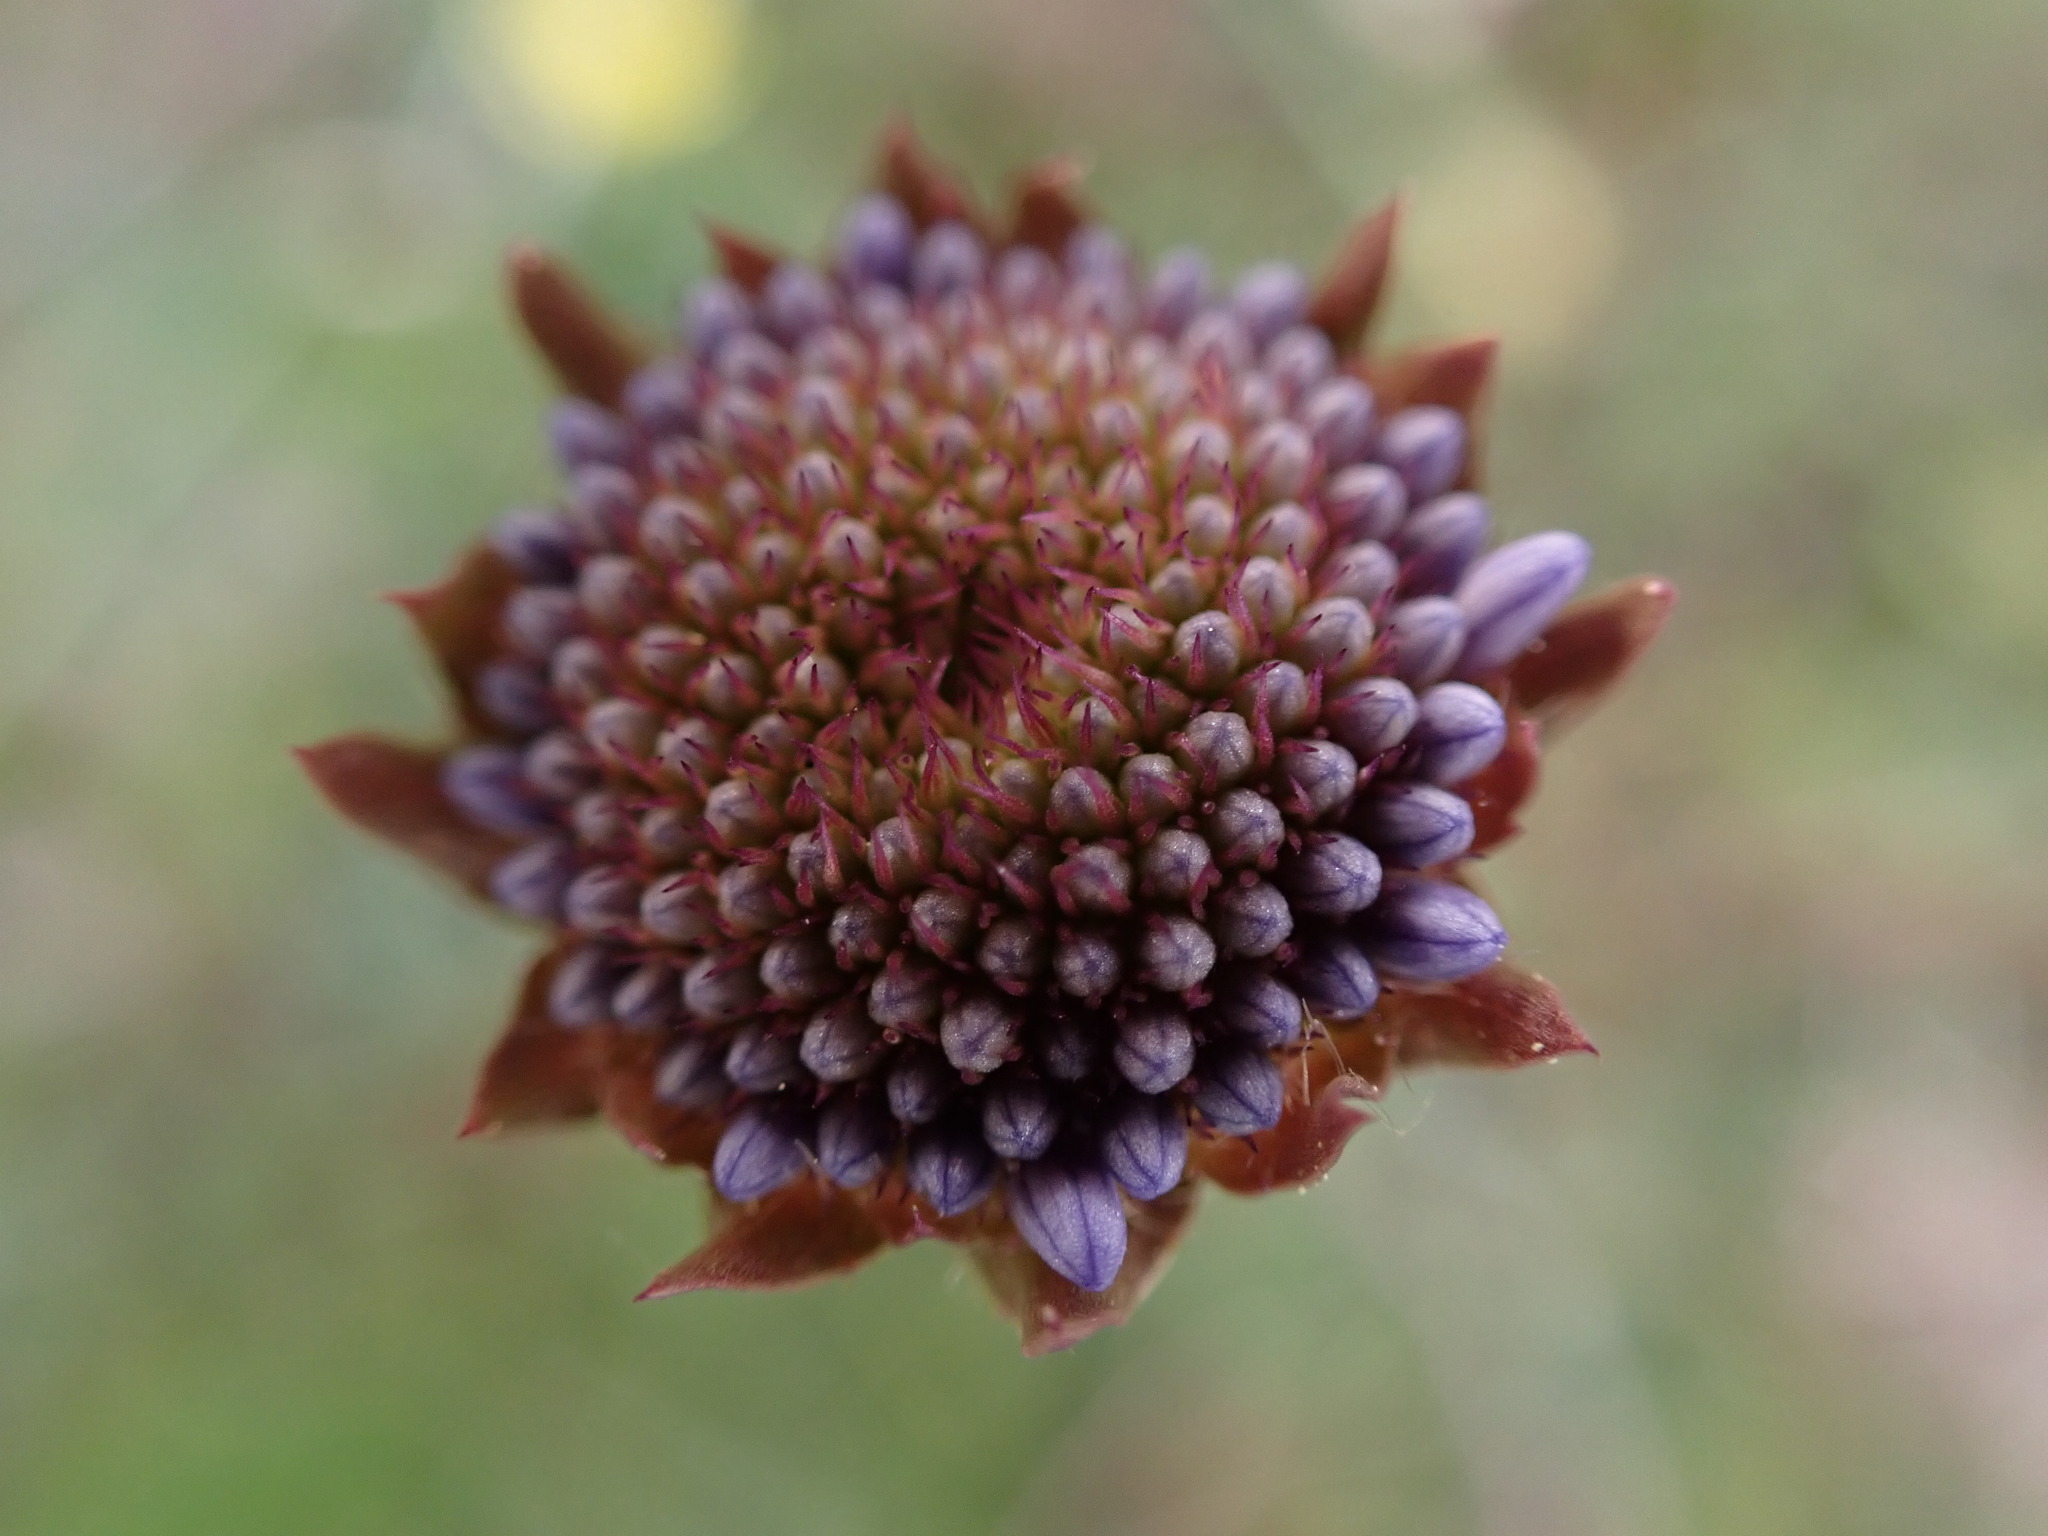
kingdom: Plantae
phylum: Tracheophyta
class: Magnoliopsida
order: Asterales
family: Campanulaceae
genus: Jasione
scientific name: Jasione montana
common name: Sheep's-bit
